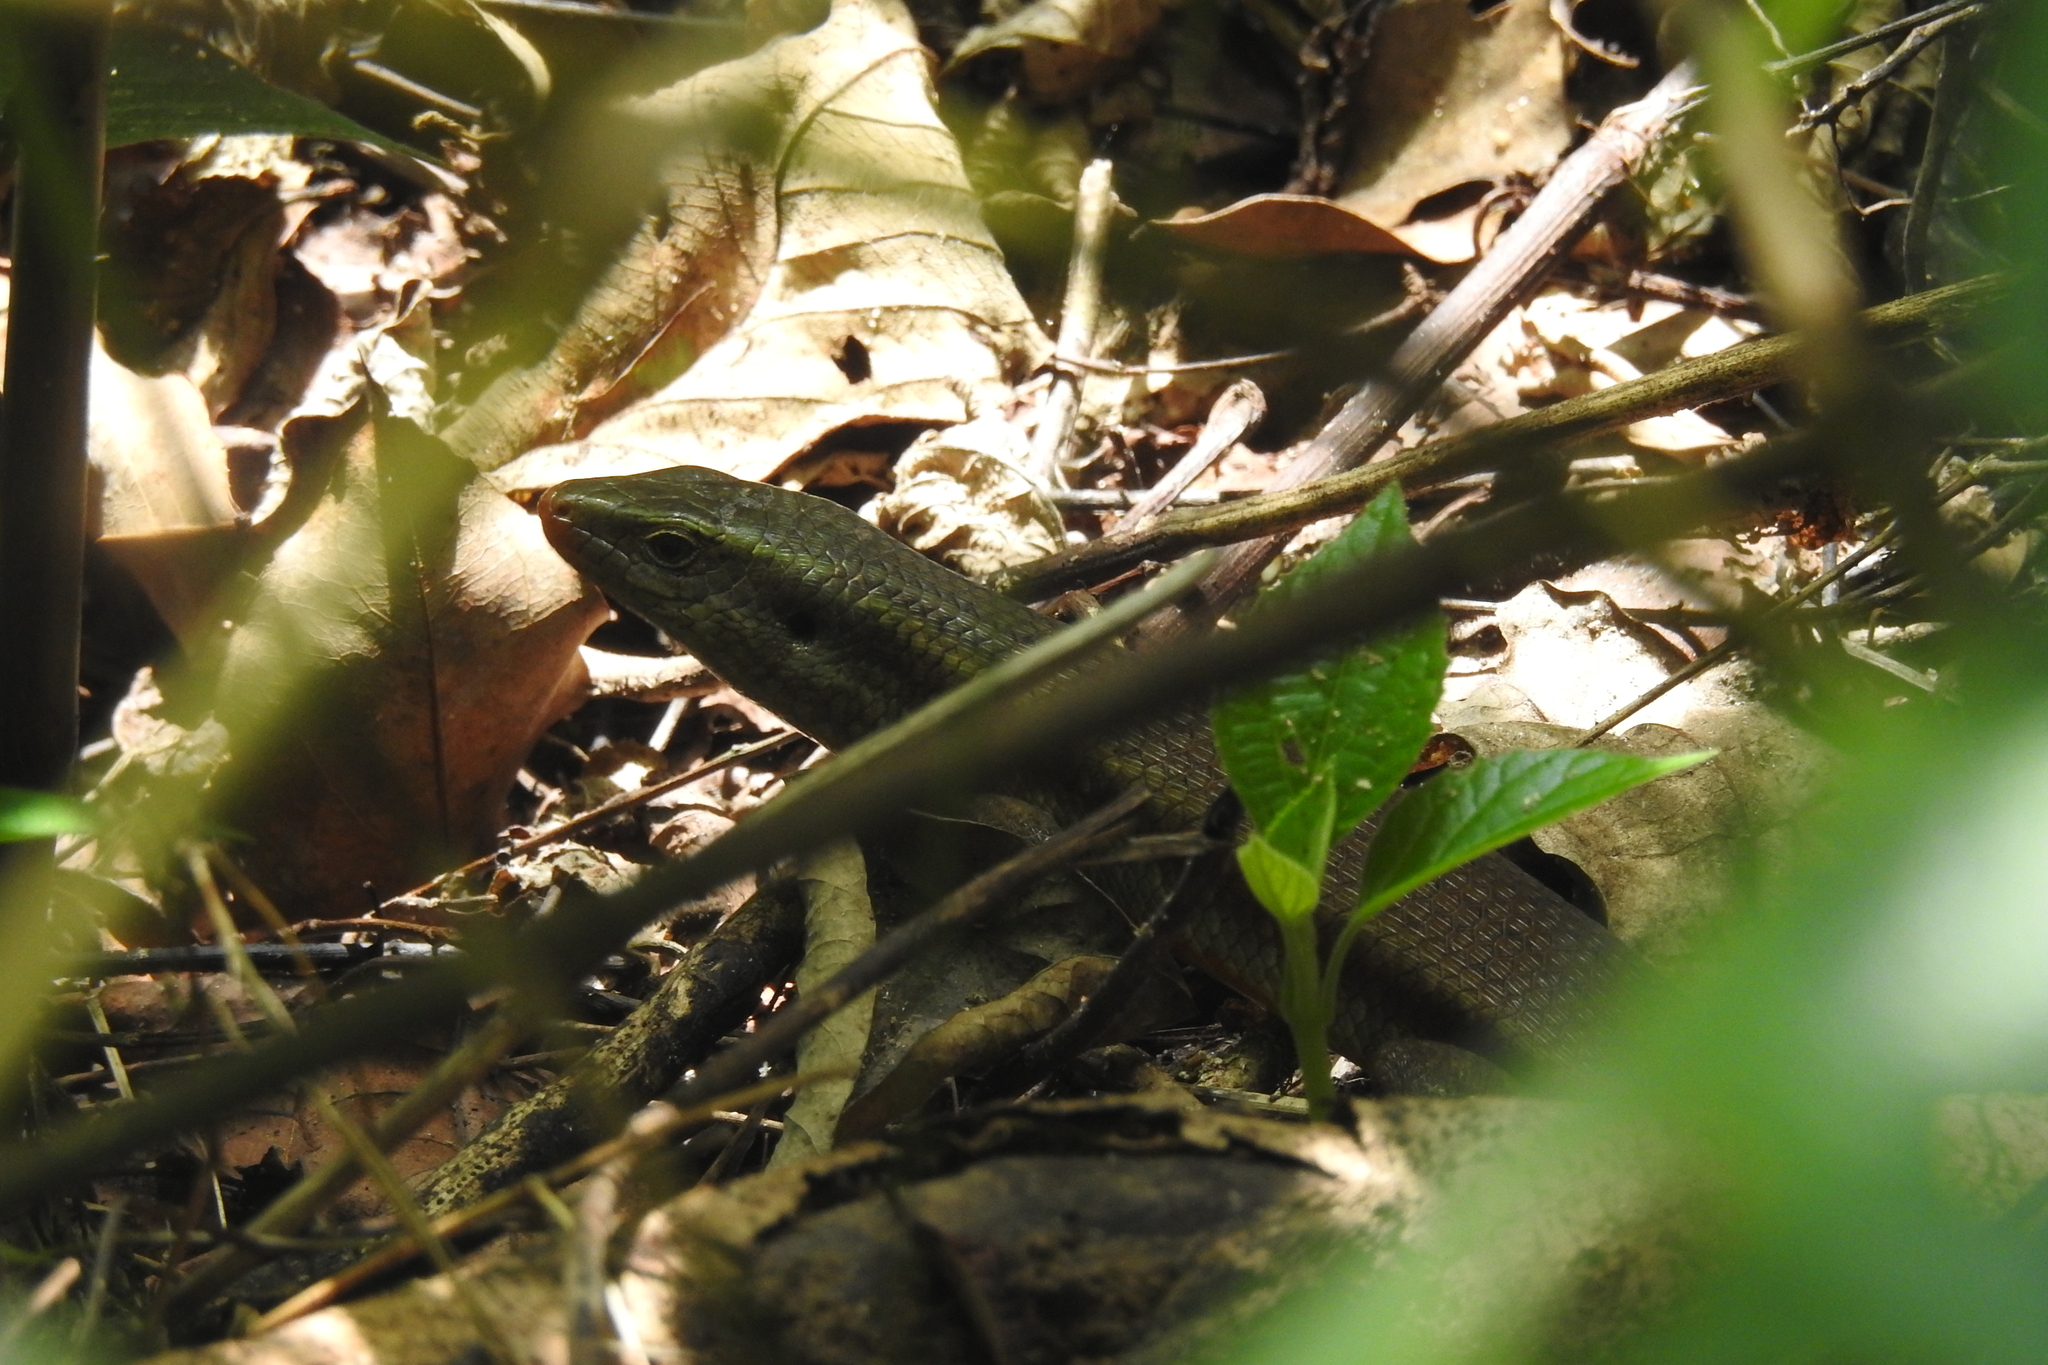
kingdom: Animalia
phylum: Chordata
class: Squamata
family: Scincidae
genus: Eutropis
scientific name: Eutropis carinata
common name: Keeled indian mabuya
